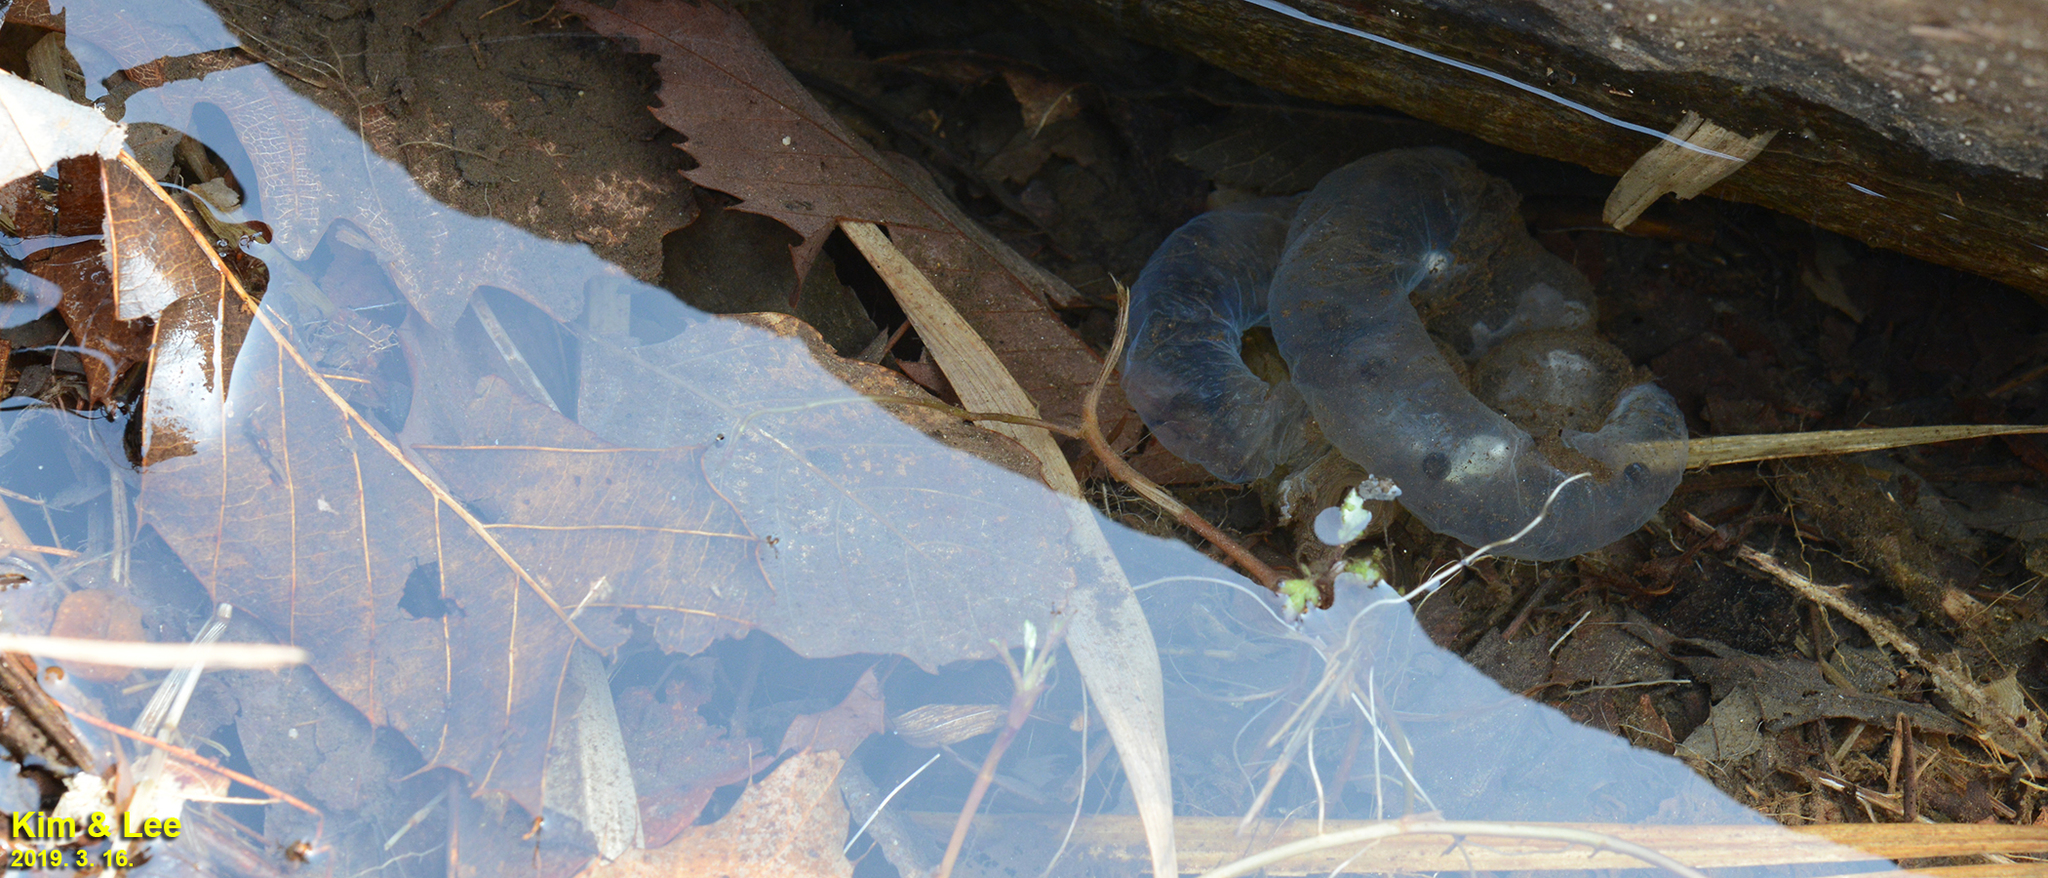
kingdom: Animalia
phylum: Chordata
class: Amphibia
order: Caudata
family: Hynobiidae
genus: Hynobius
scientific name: Hynobius leechii
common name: Gensan salamander
